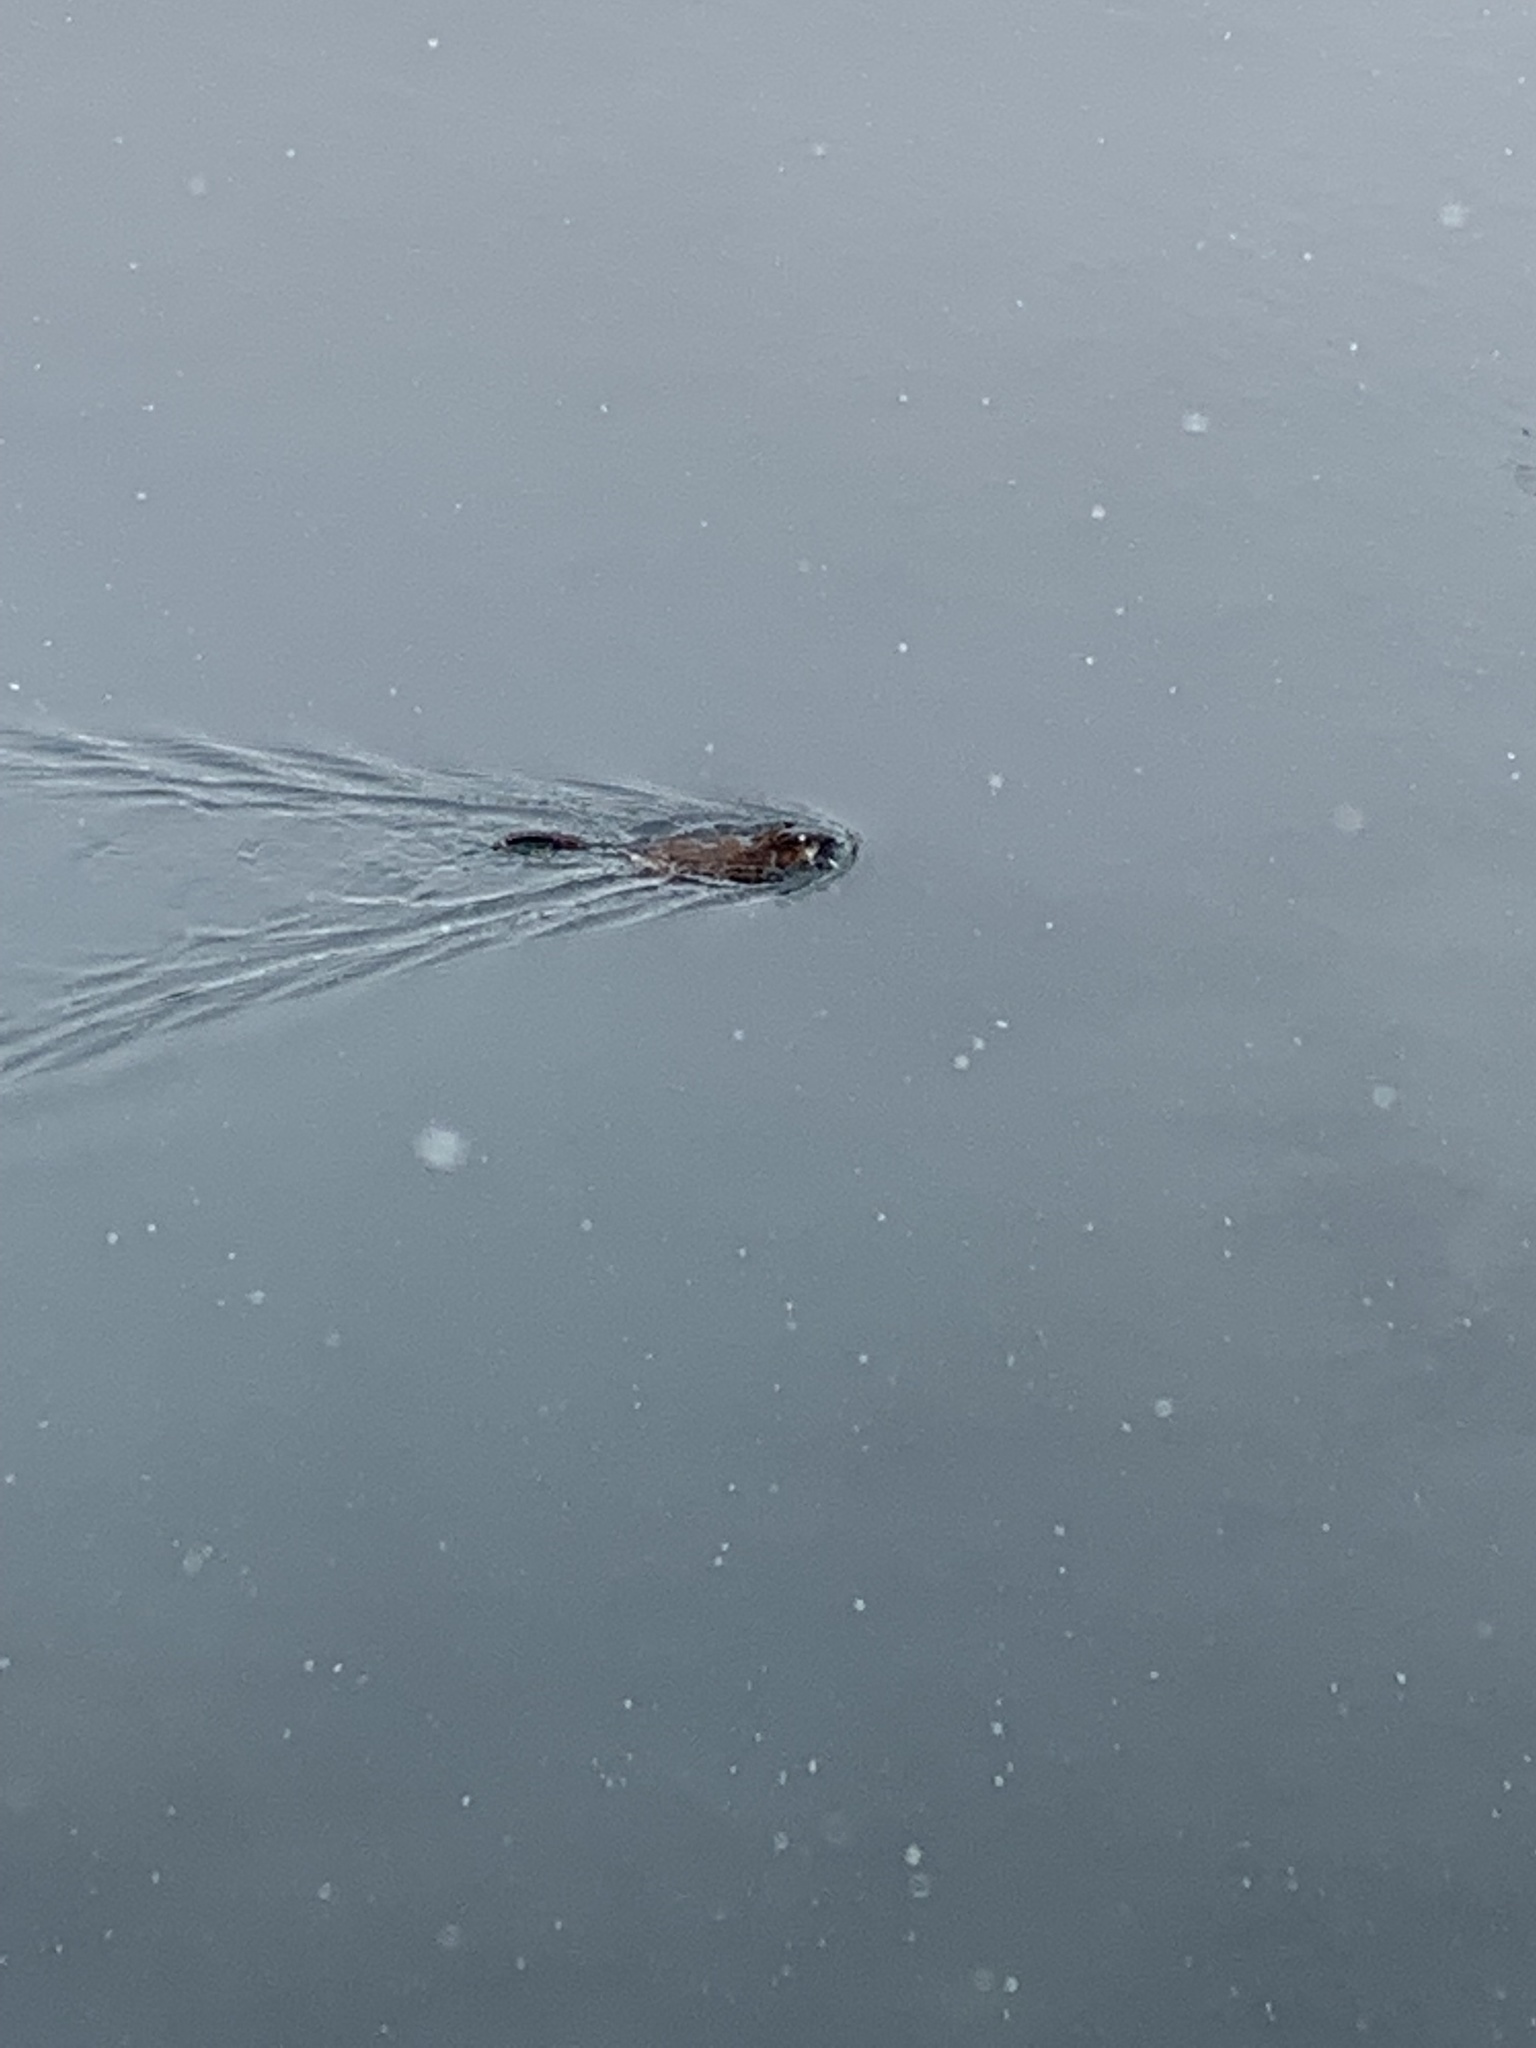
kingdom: Animalia
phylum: Chordata
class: Mammalia
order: Rodentia
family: Cricetidae
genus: Ondatra
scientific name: Ondatra zibethicus
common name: Muskrat
